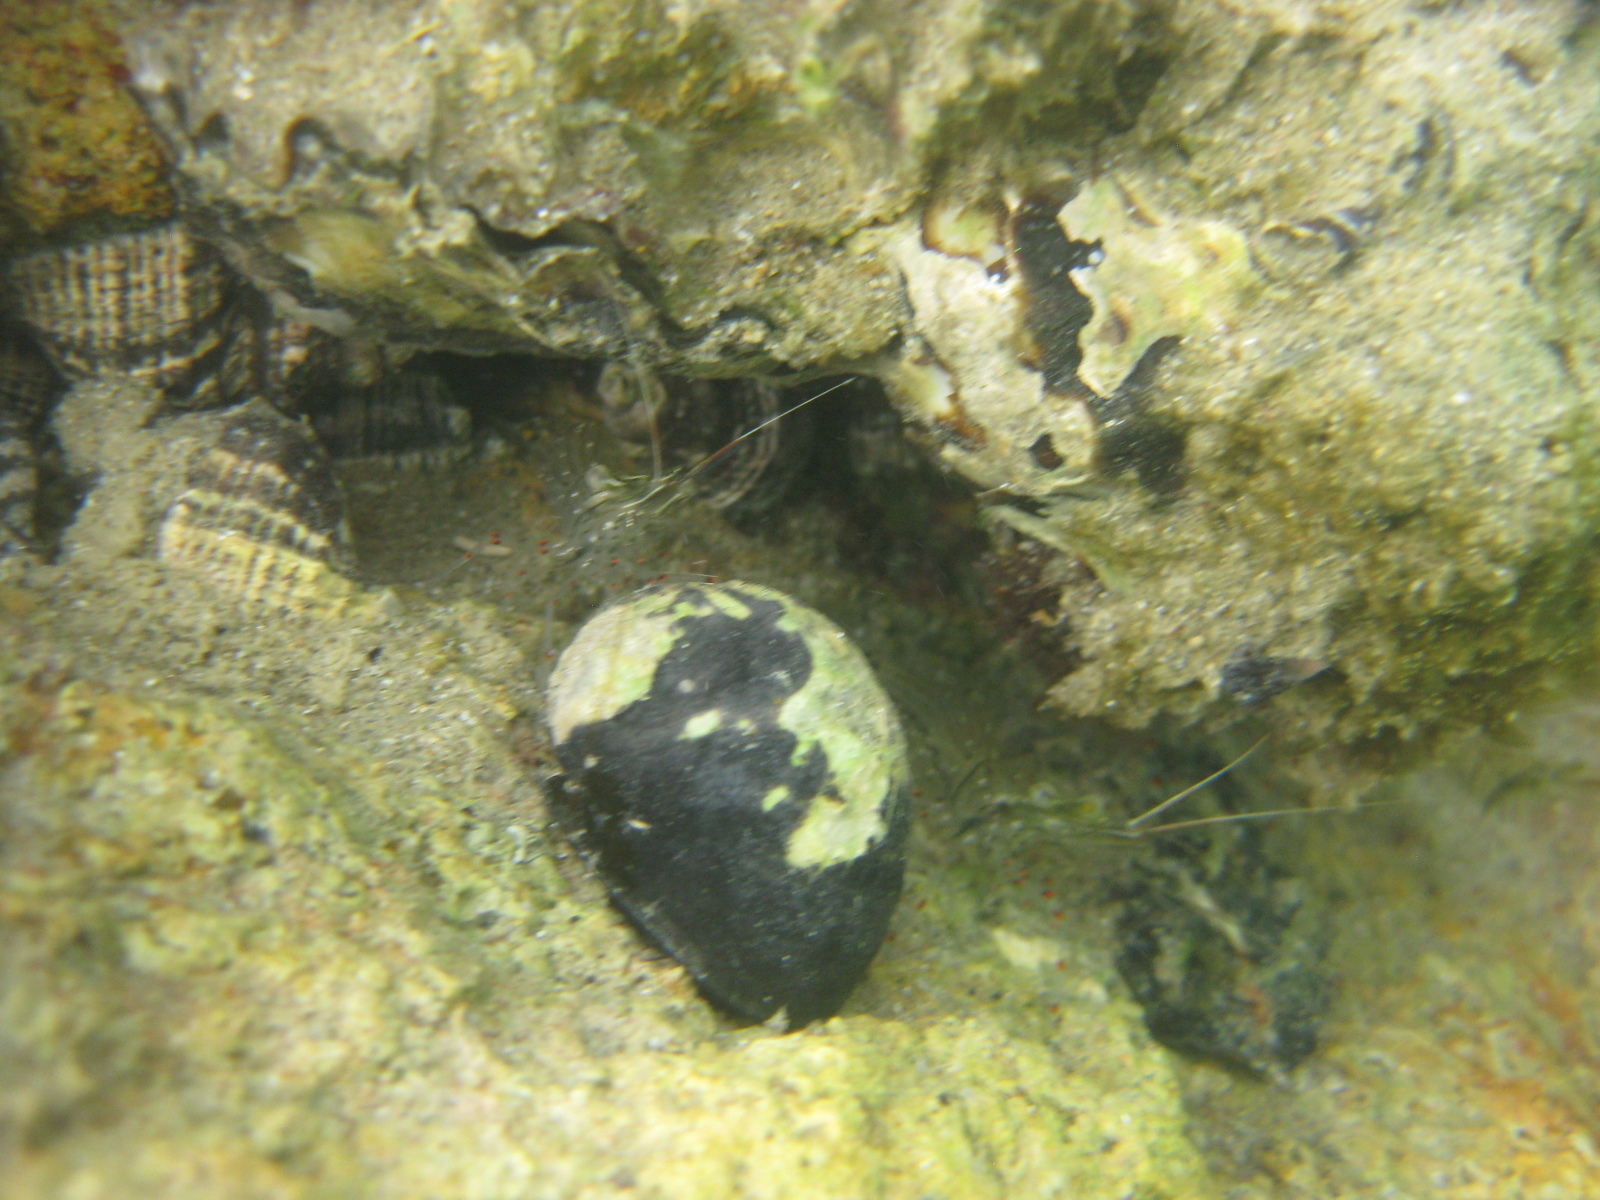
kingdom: Animalia
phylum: Mollusca
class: Gastropoda
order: Cycloneritida
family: Neritidae
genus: Nerita
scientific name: Nerita melanotragus
